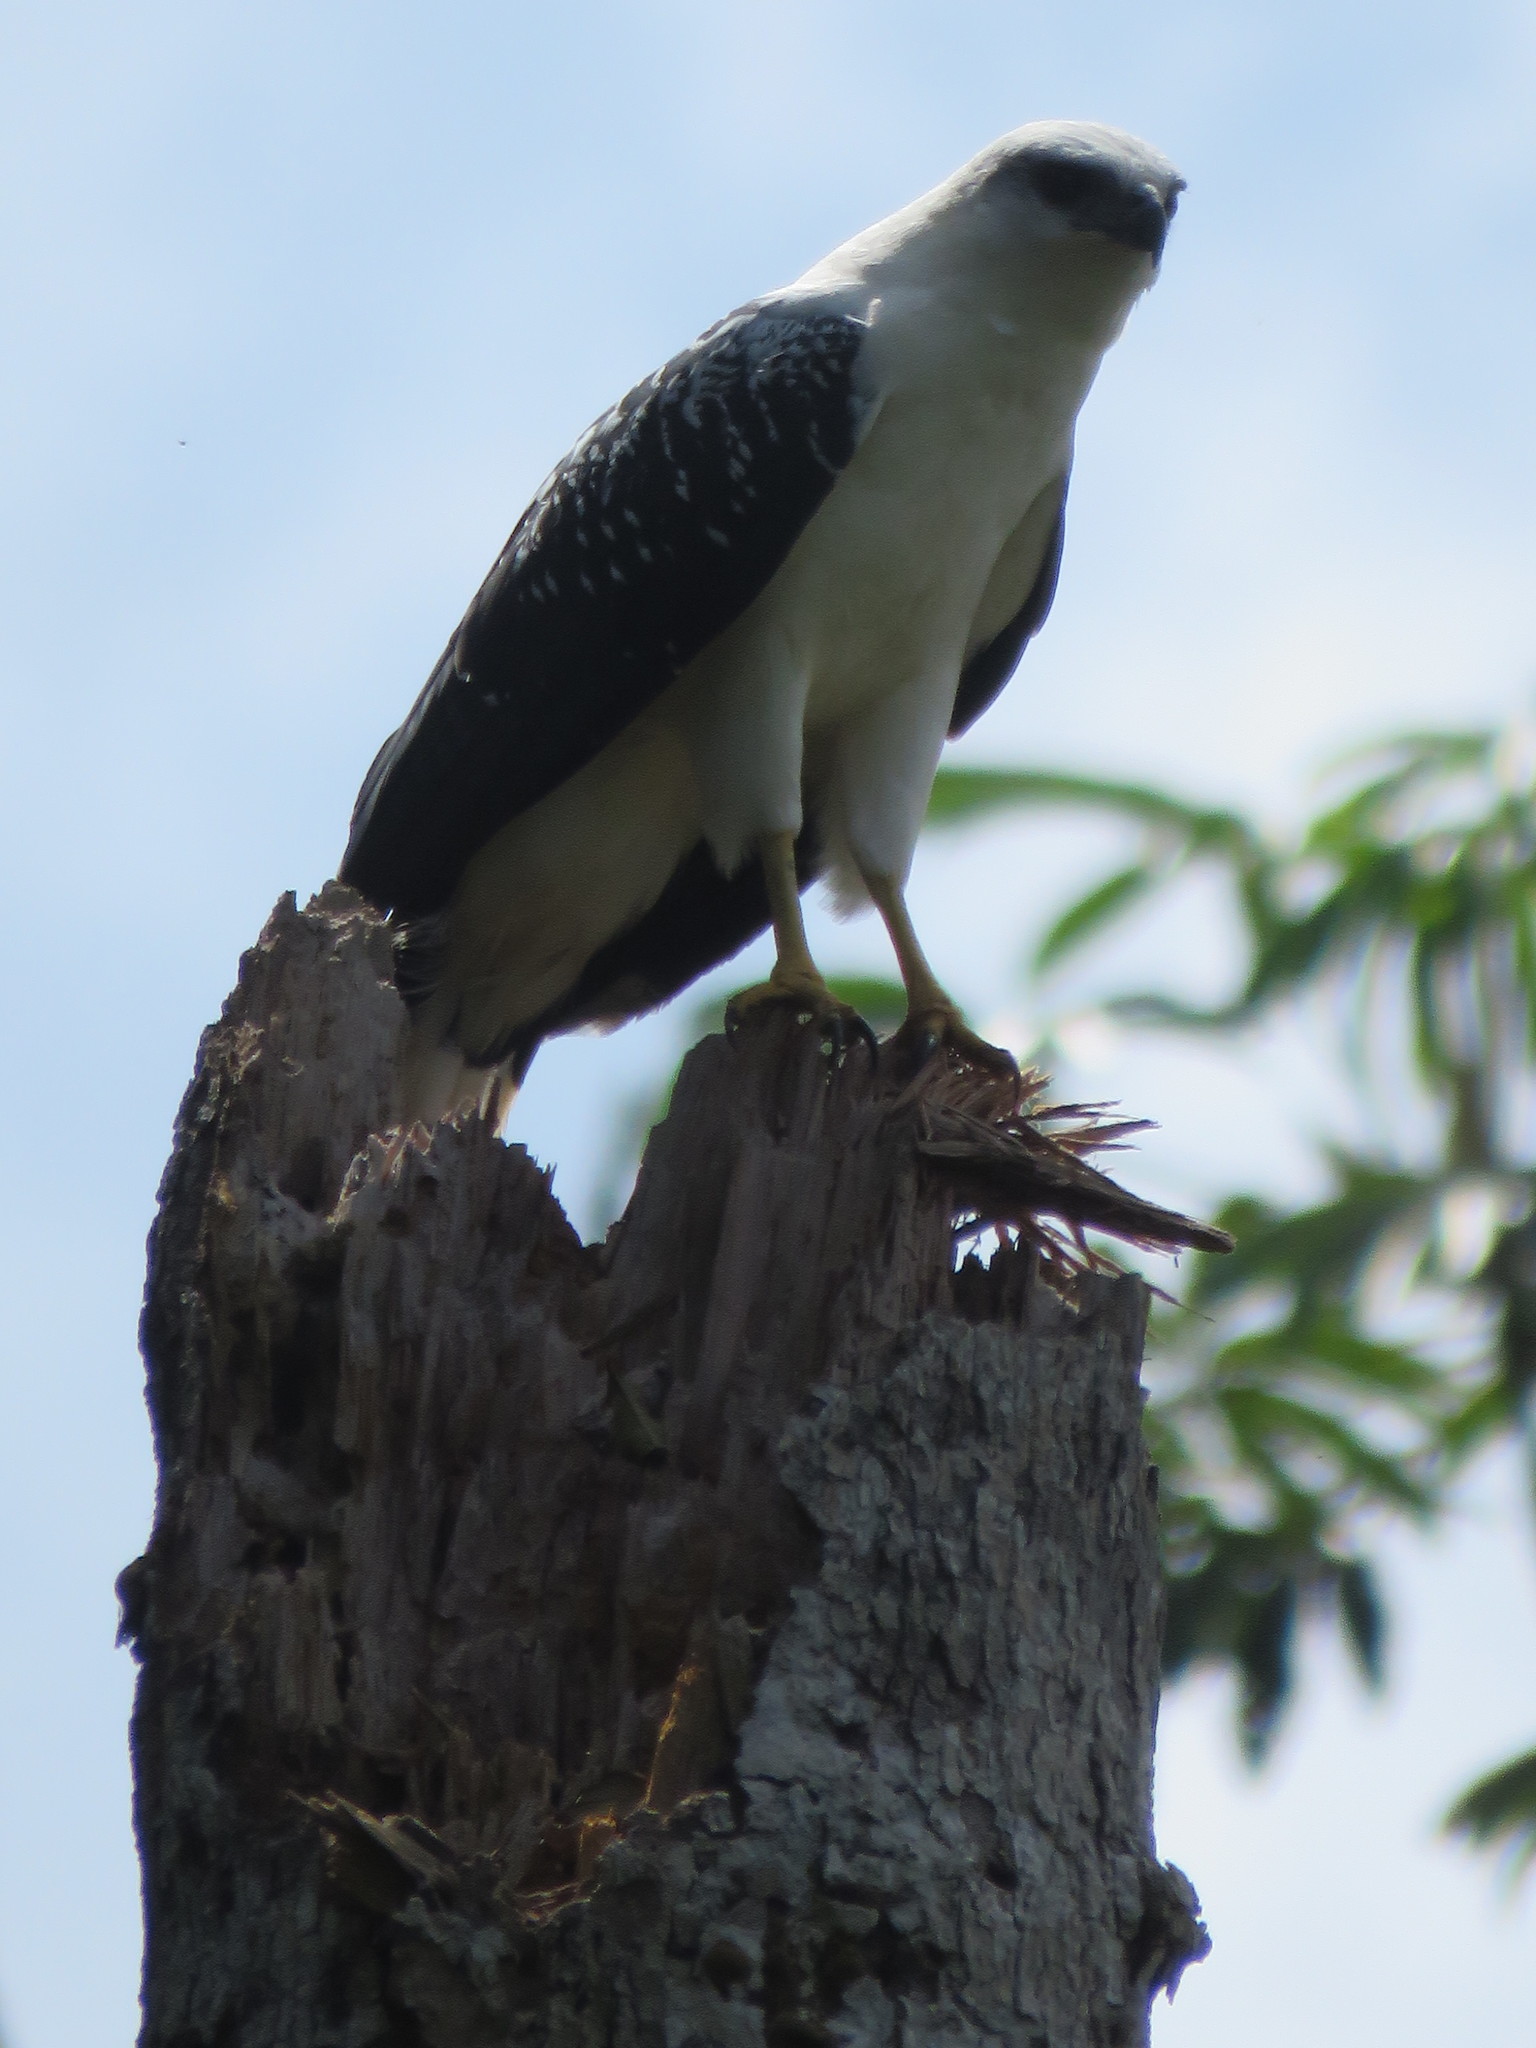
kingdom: Animalia
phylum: Chordata
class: Aves
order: Accipitriformes
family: Accipitridae
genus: Leucopternis
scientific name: Leucopternis albicollis
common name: White hawk
